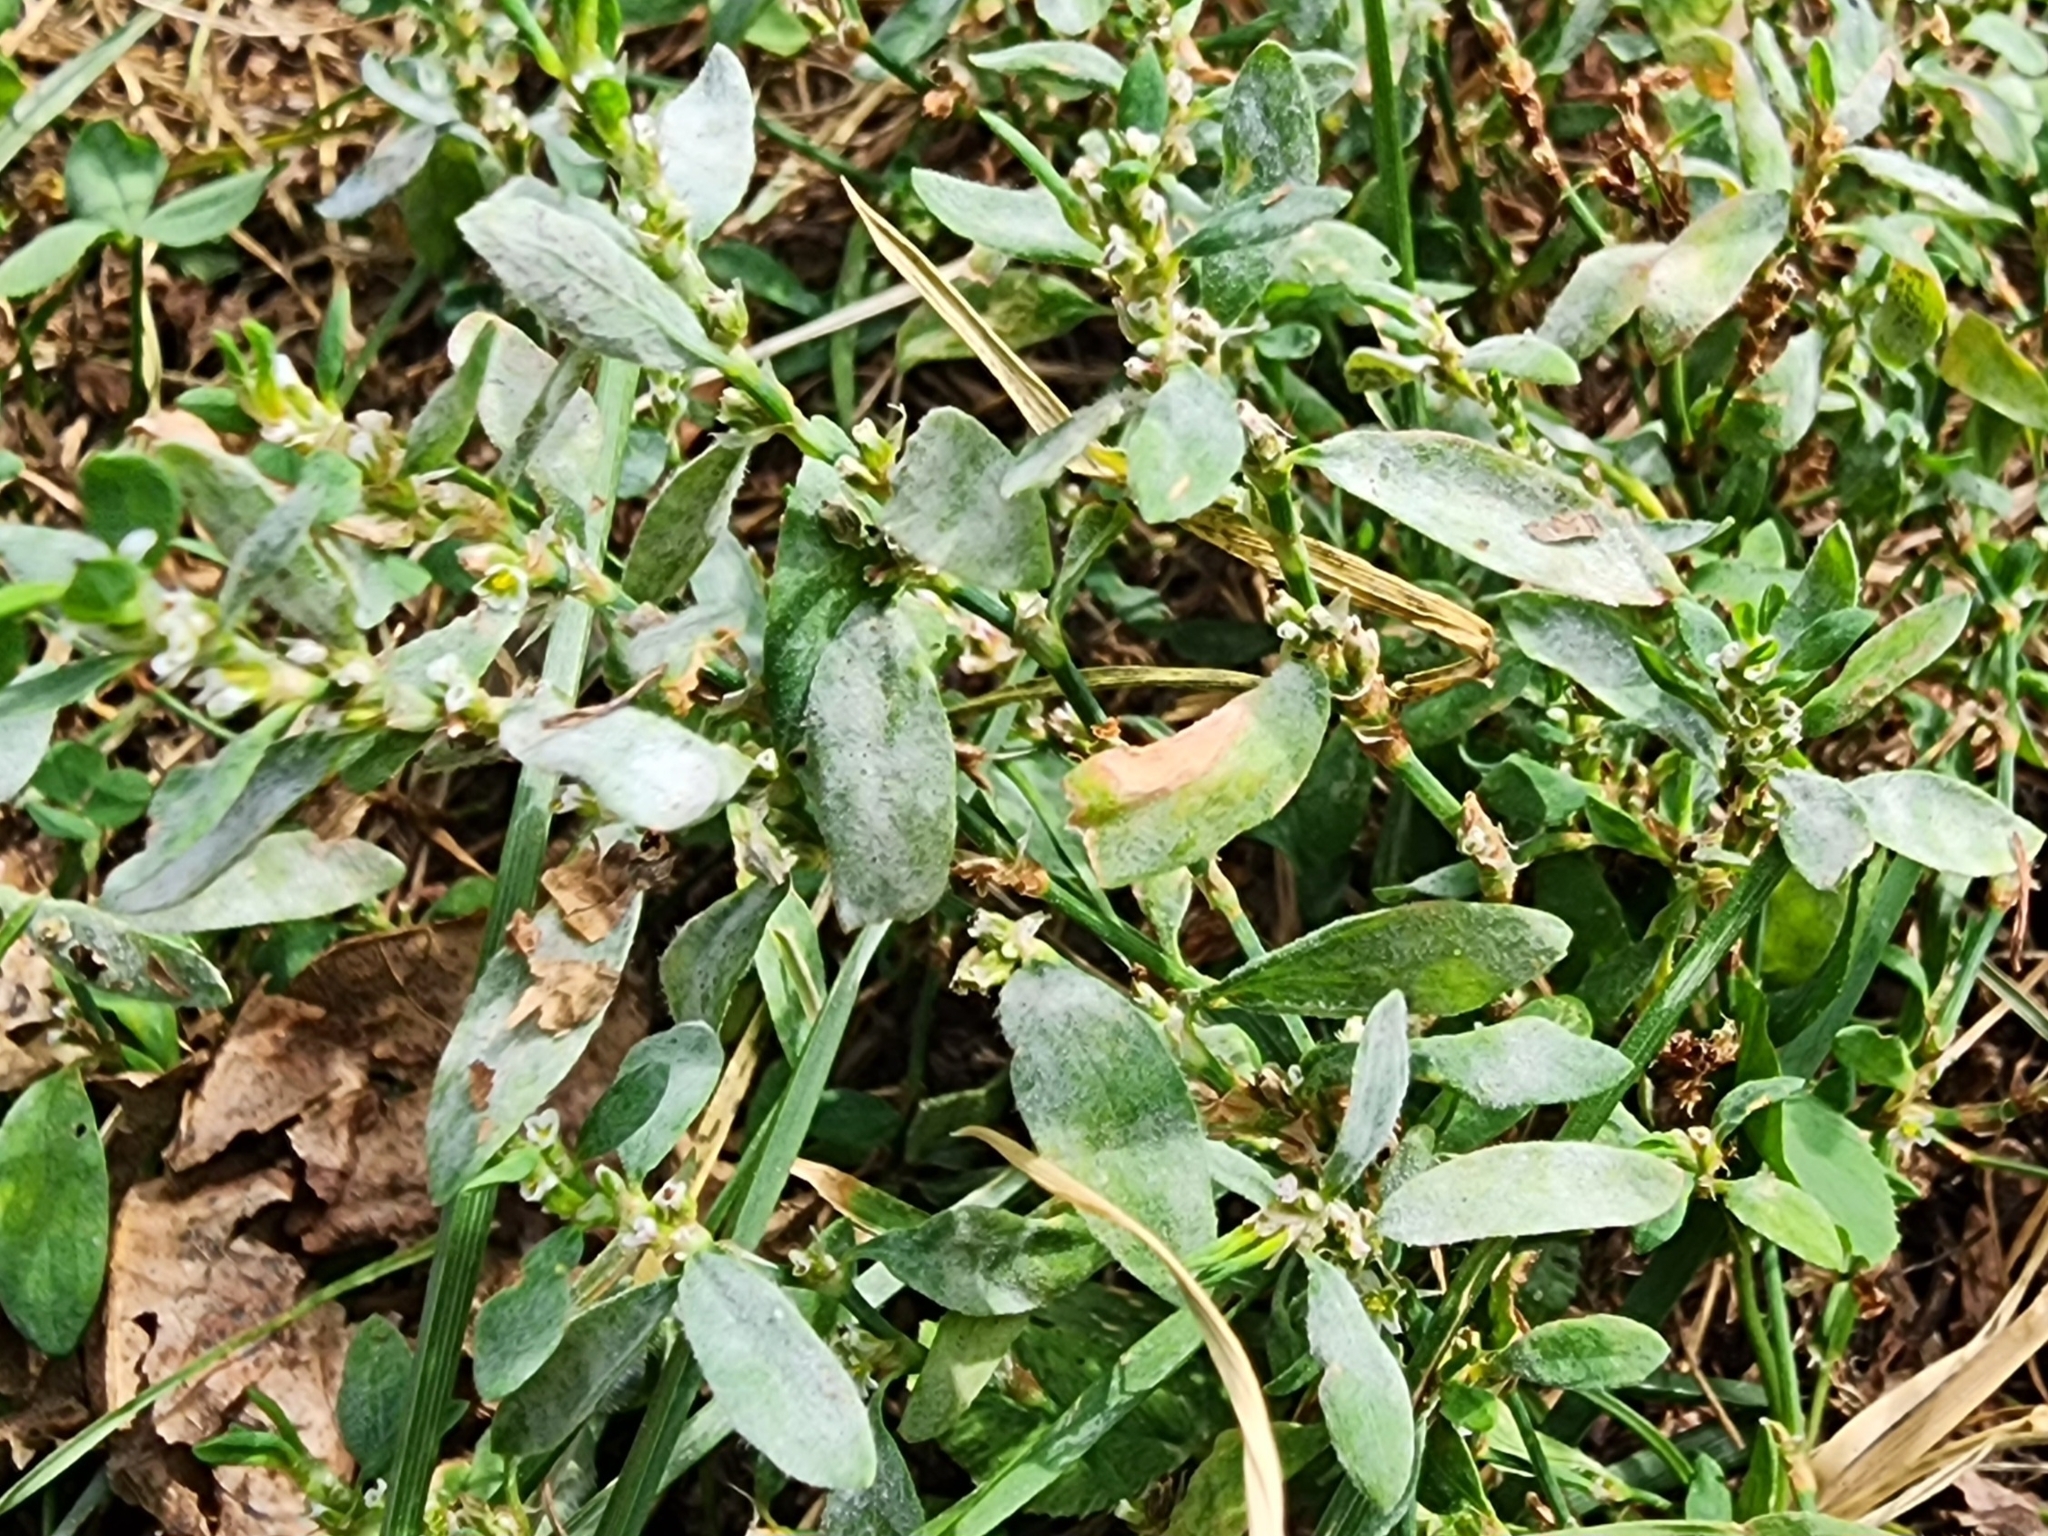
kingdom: Fungi
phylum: Ascomycota
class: Leotiomycetes
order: Helotiales
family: Erysiphaceae
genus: Erysiphe
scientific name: Erysiphe polygoni
